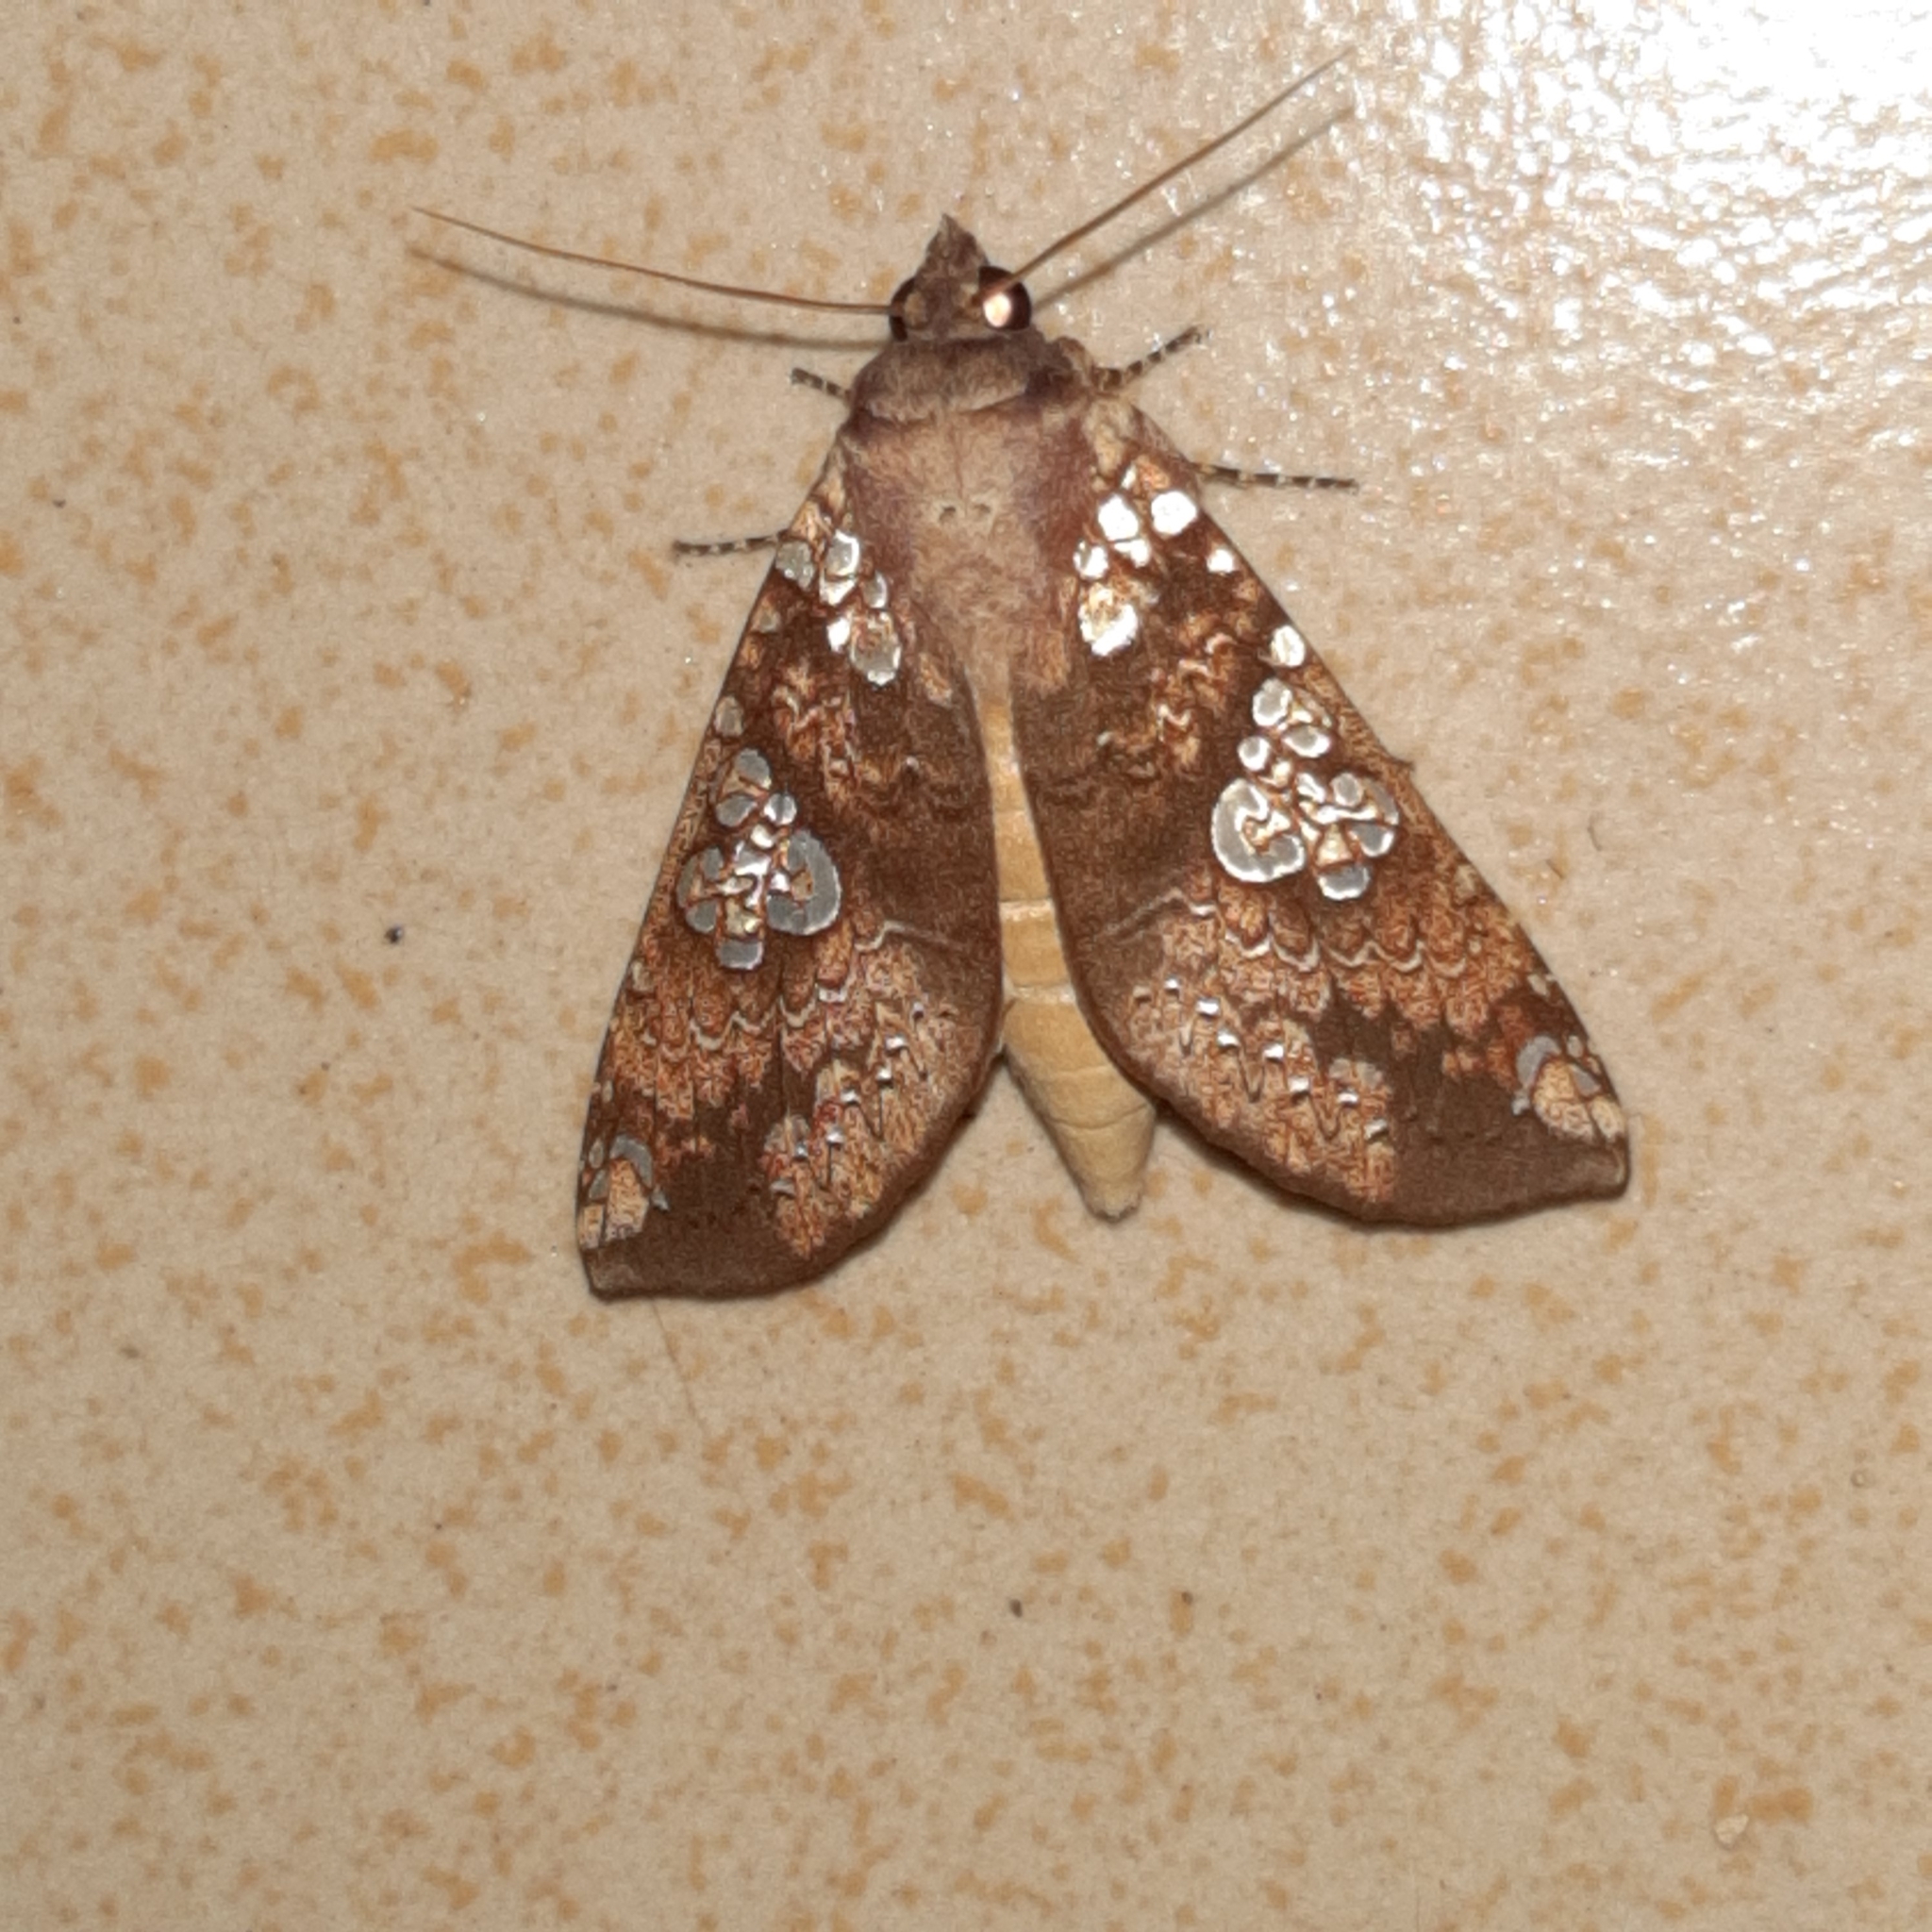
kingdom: Animalia
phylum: Arthropoda
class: Insecta
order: Lepidoptera
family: Notodontidae
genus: Chliara
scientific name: Chliara cresus
